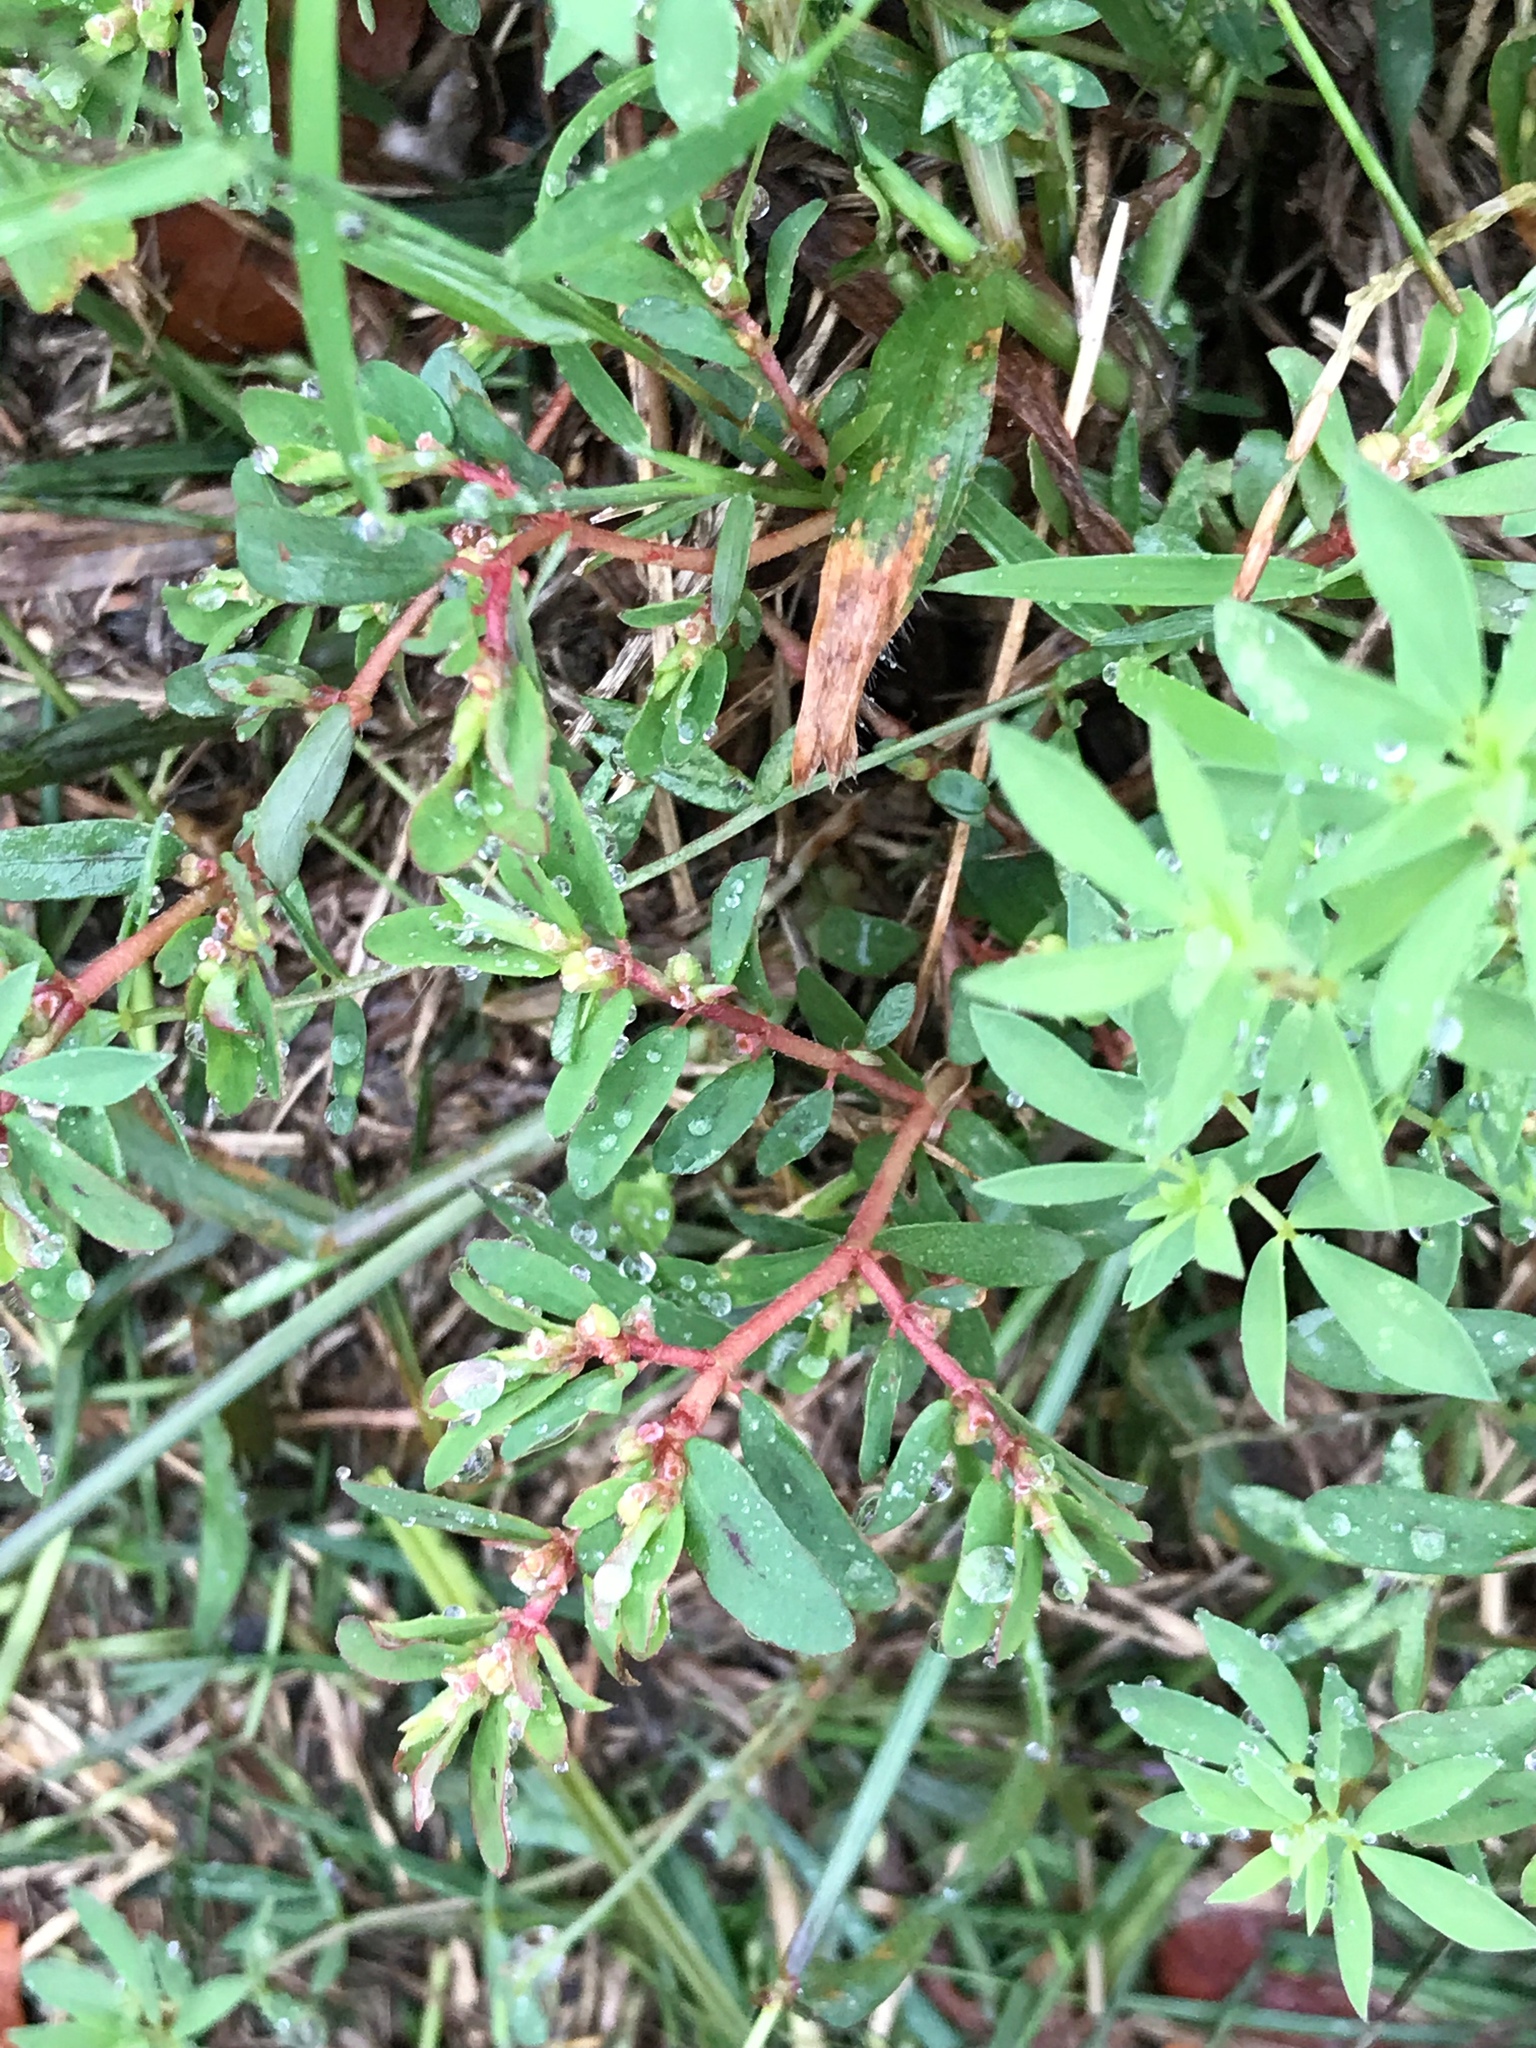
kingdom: Plantae
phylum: Tracheophyta
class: Magnoliopsida
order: Malpighiales
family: Euphorbiaceae
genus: Euphorbia
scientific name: Euphorbia maculata
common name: Spotted spurge
